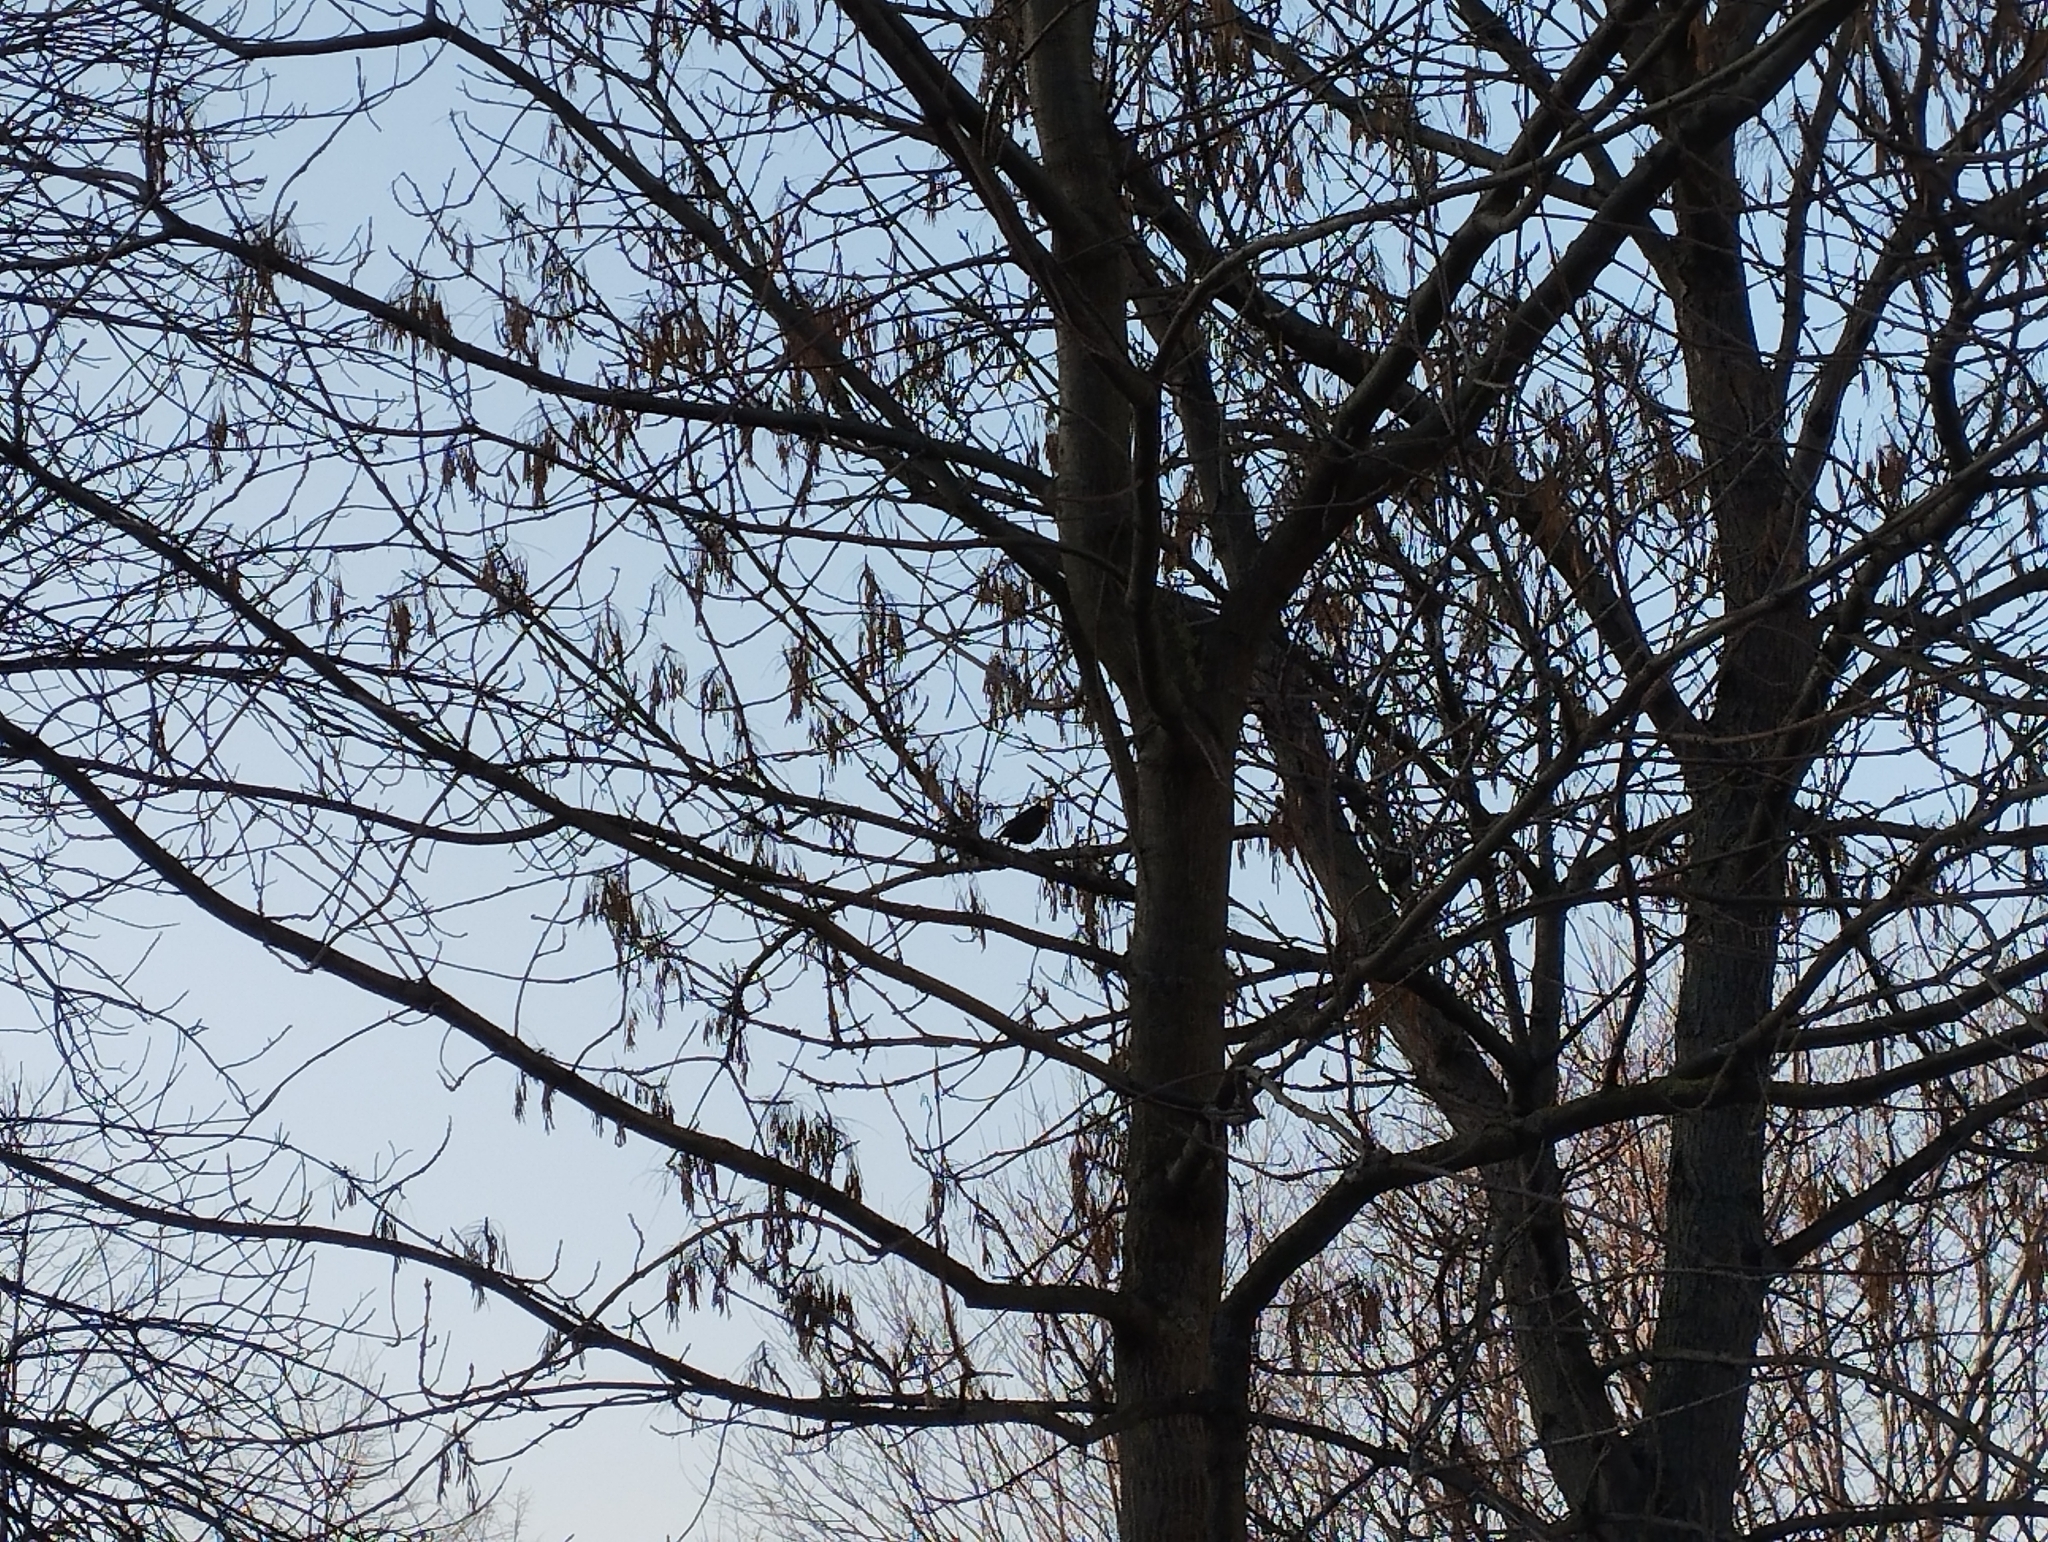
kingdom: Animalia
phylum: Chordata
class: Aves
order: Passeriformes
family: Turdidae
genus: Turdus
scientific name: Turdus merula
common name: Common blackbird
